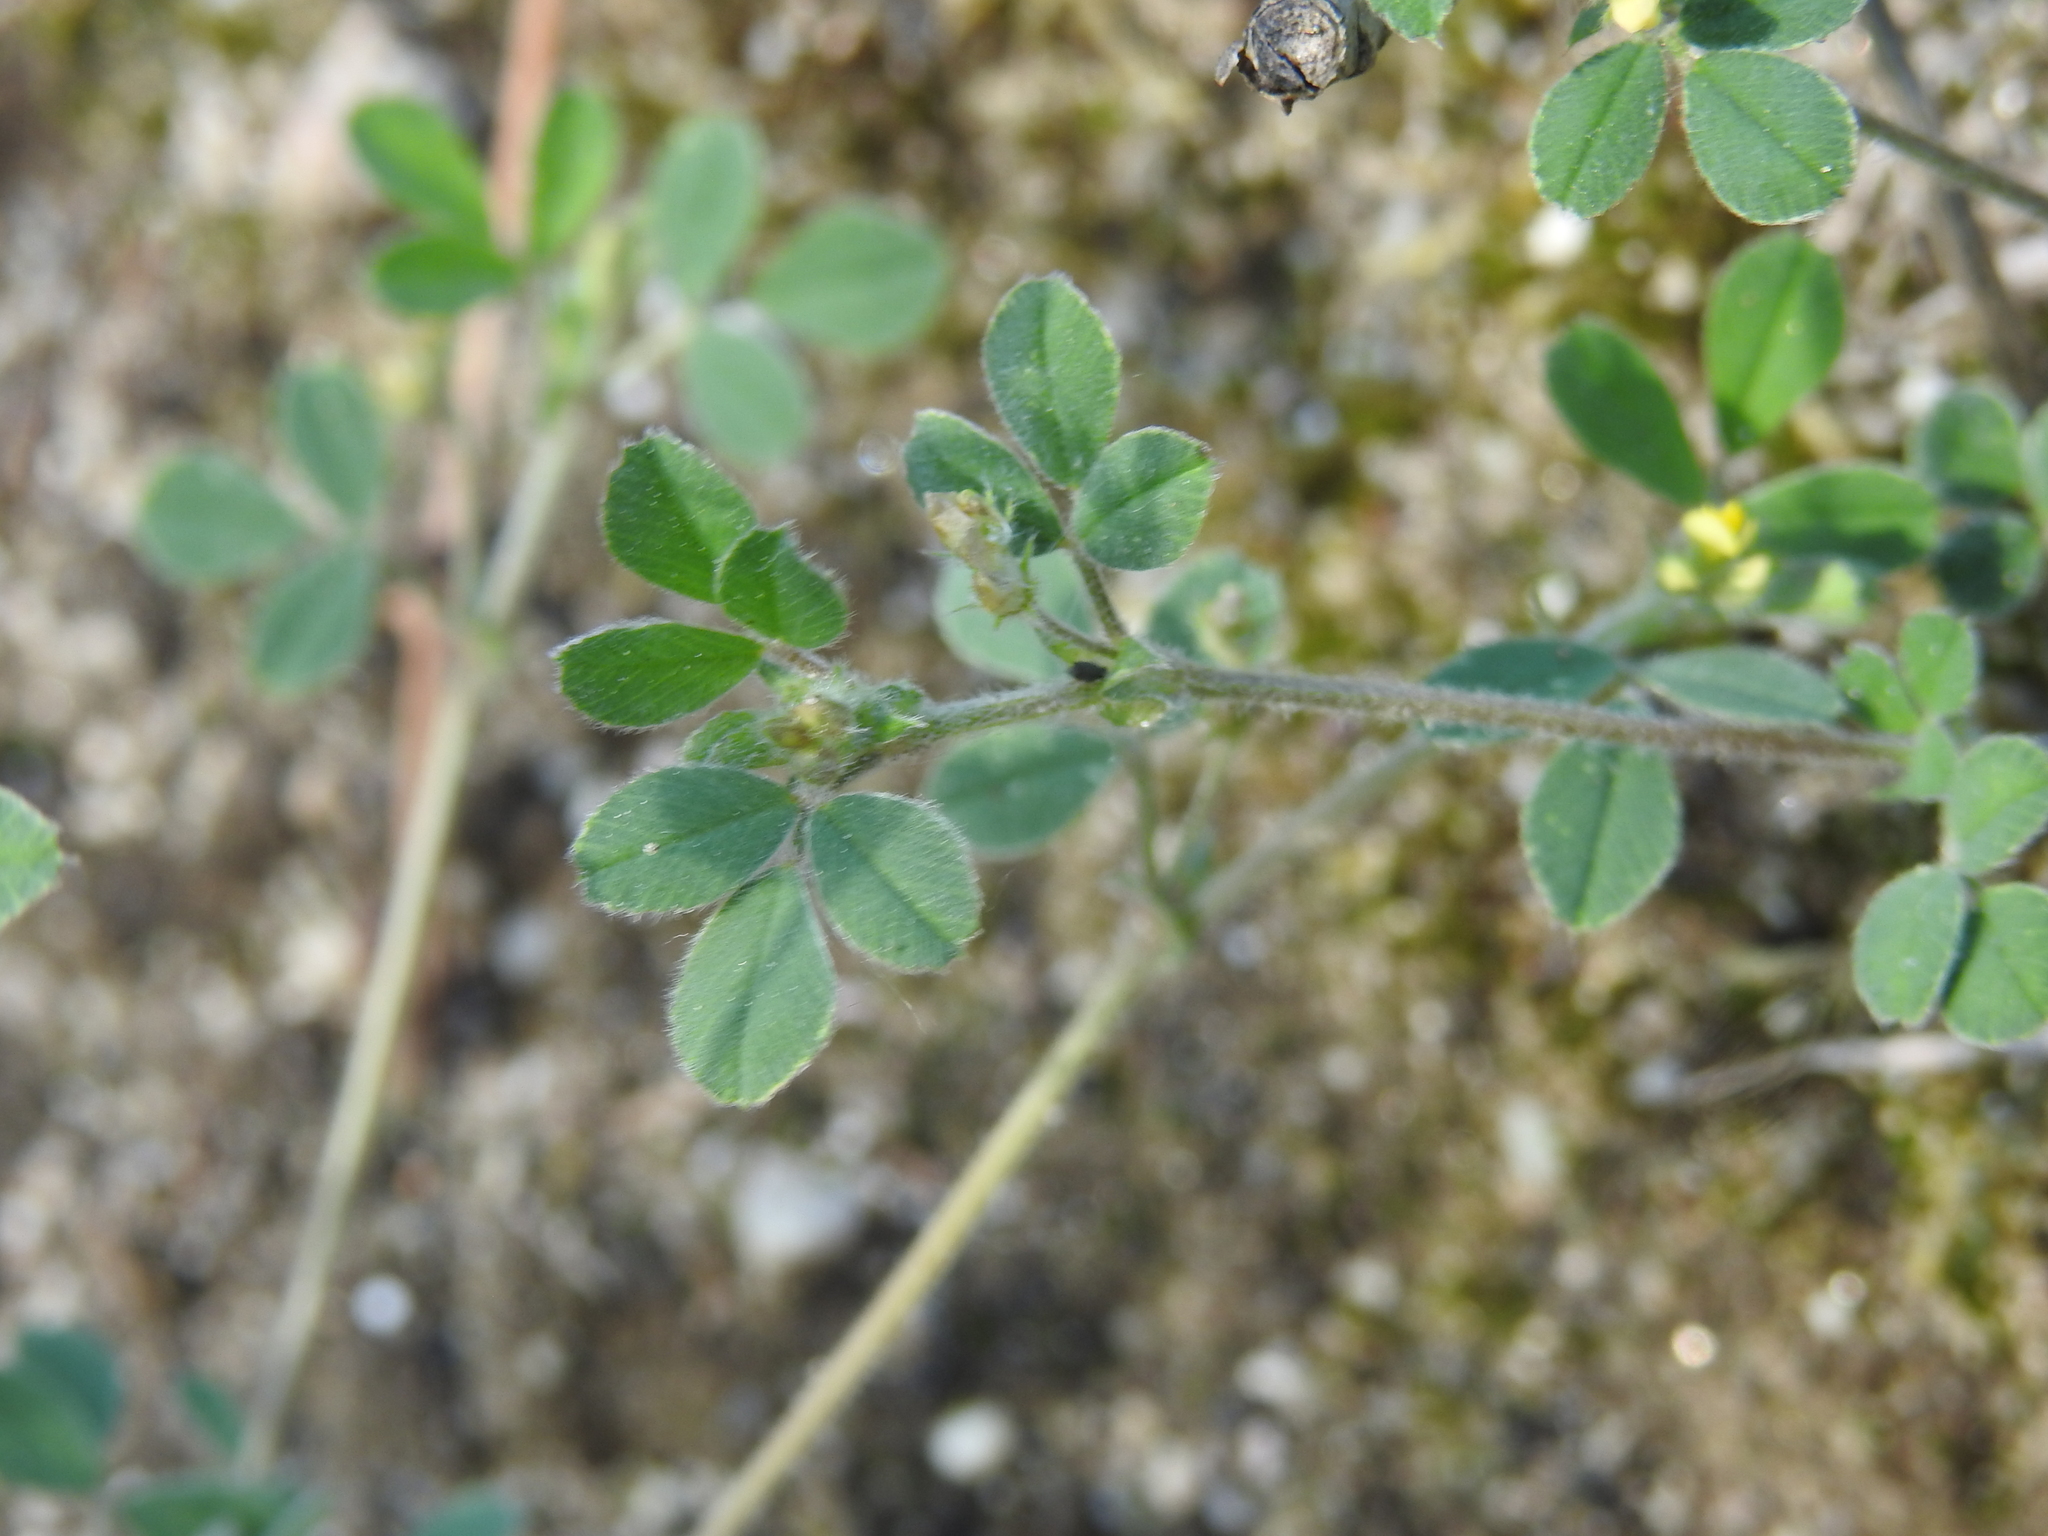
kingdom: Plantae
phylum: Tracheophyta
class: Magnoliopsida
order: Fabales
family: Fabaceae
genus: Medicago
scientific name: Medicago minima
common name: Little bur-clover
